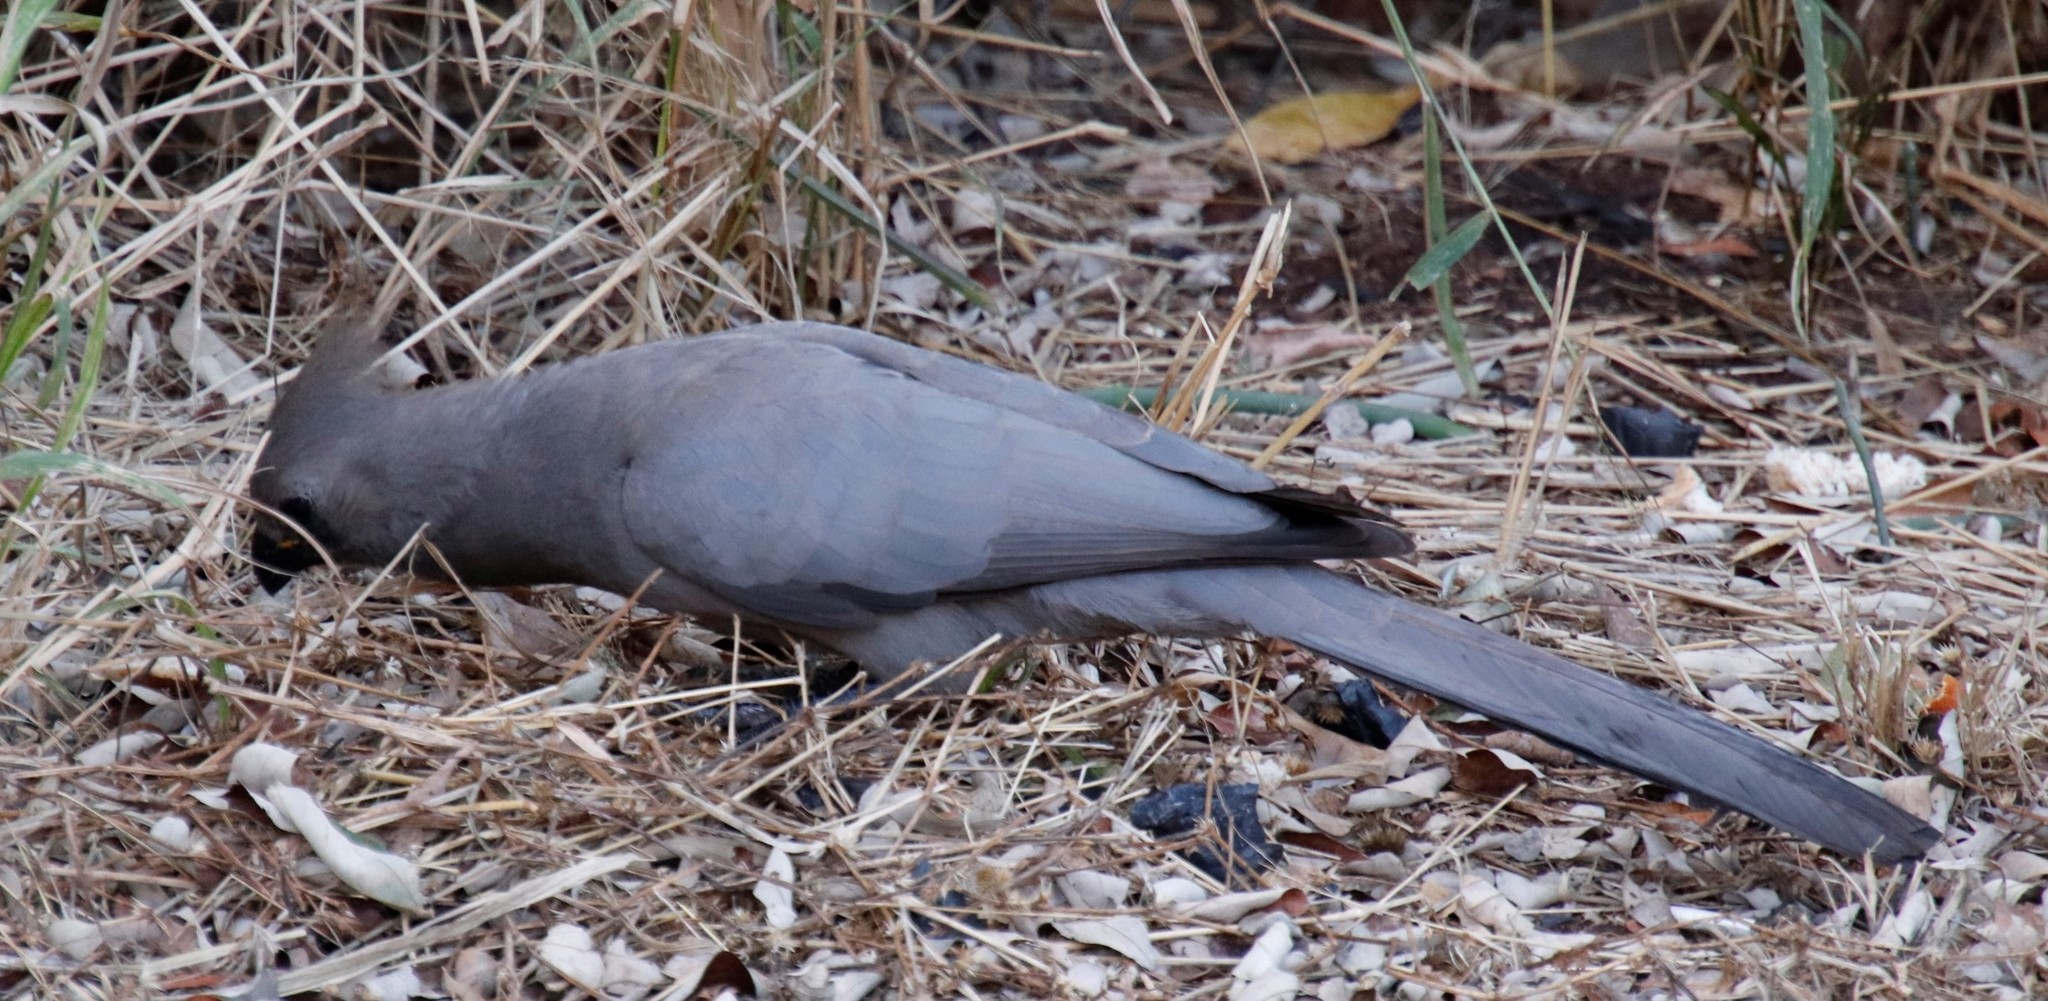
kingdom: Animalia
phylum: Chordata
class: Aves
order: Musophagiformes
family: Musophagidae
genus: Corythaixoides
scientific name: Corythaixoides concolor
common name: Grey go-away-bird
